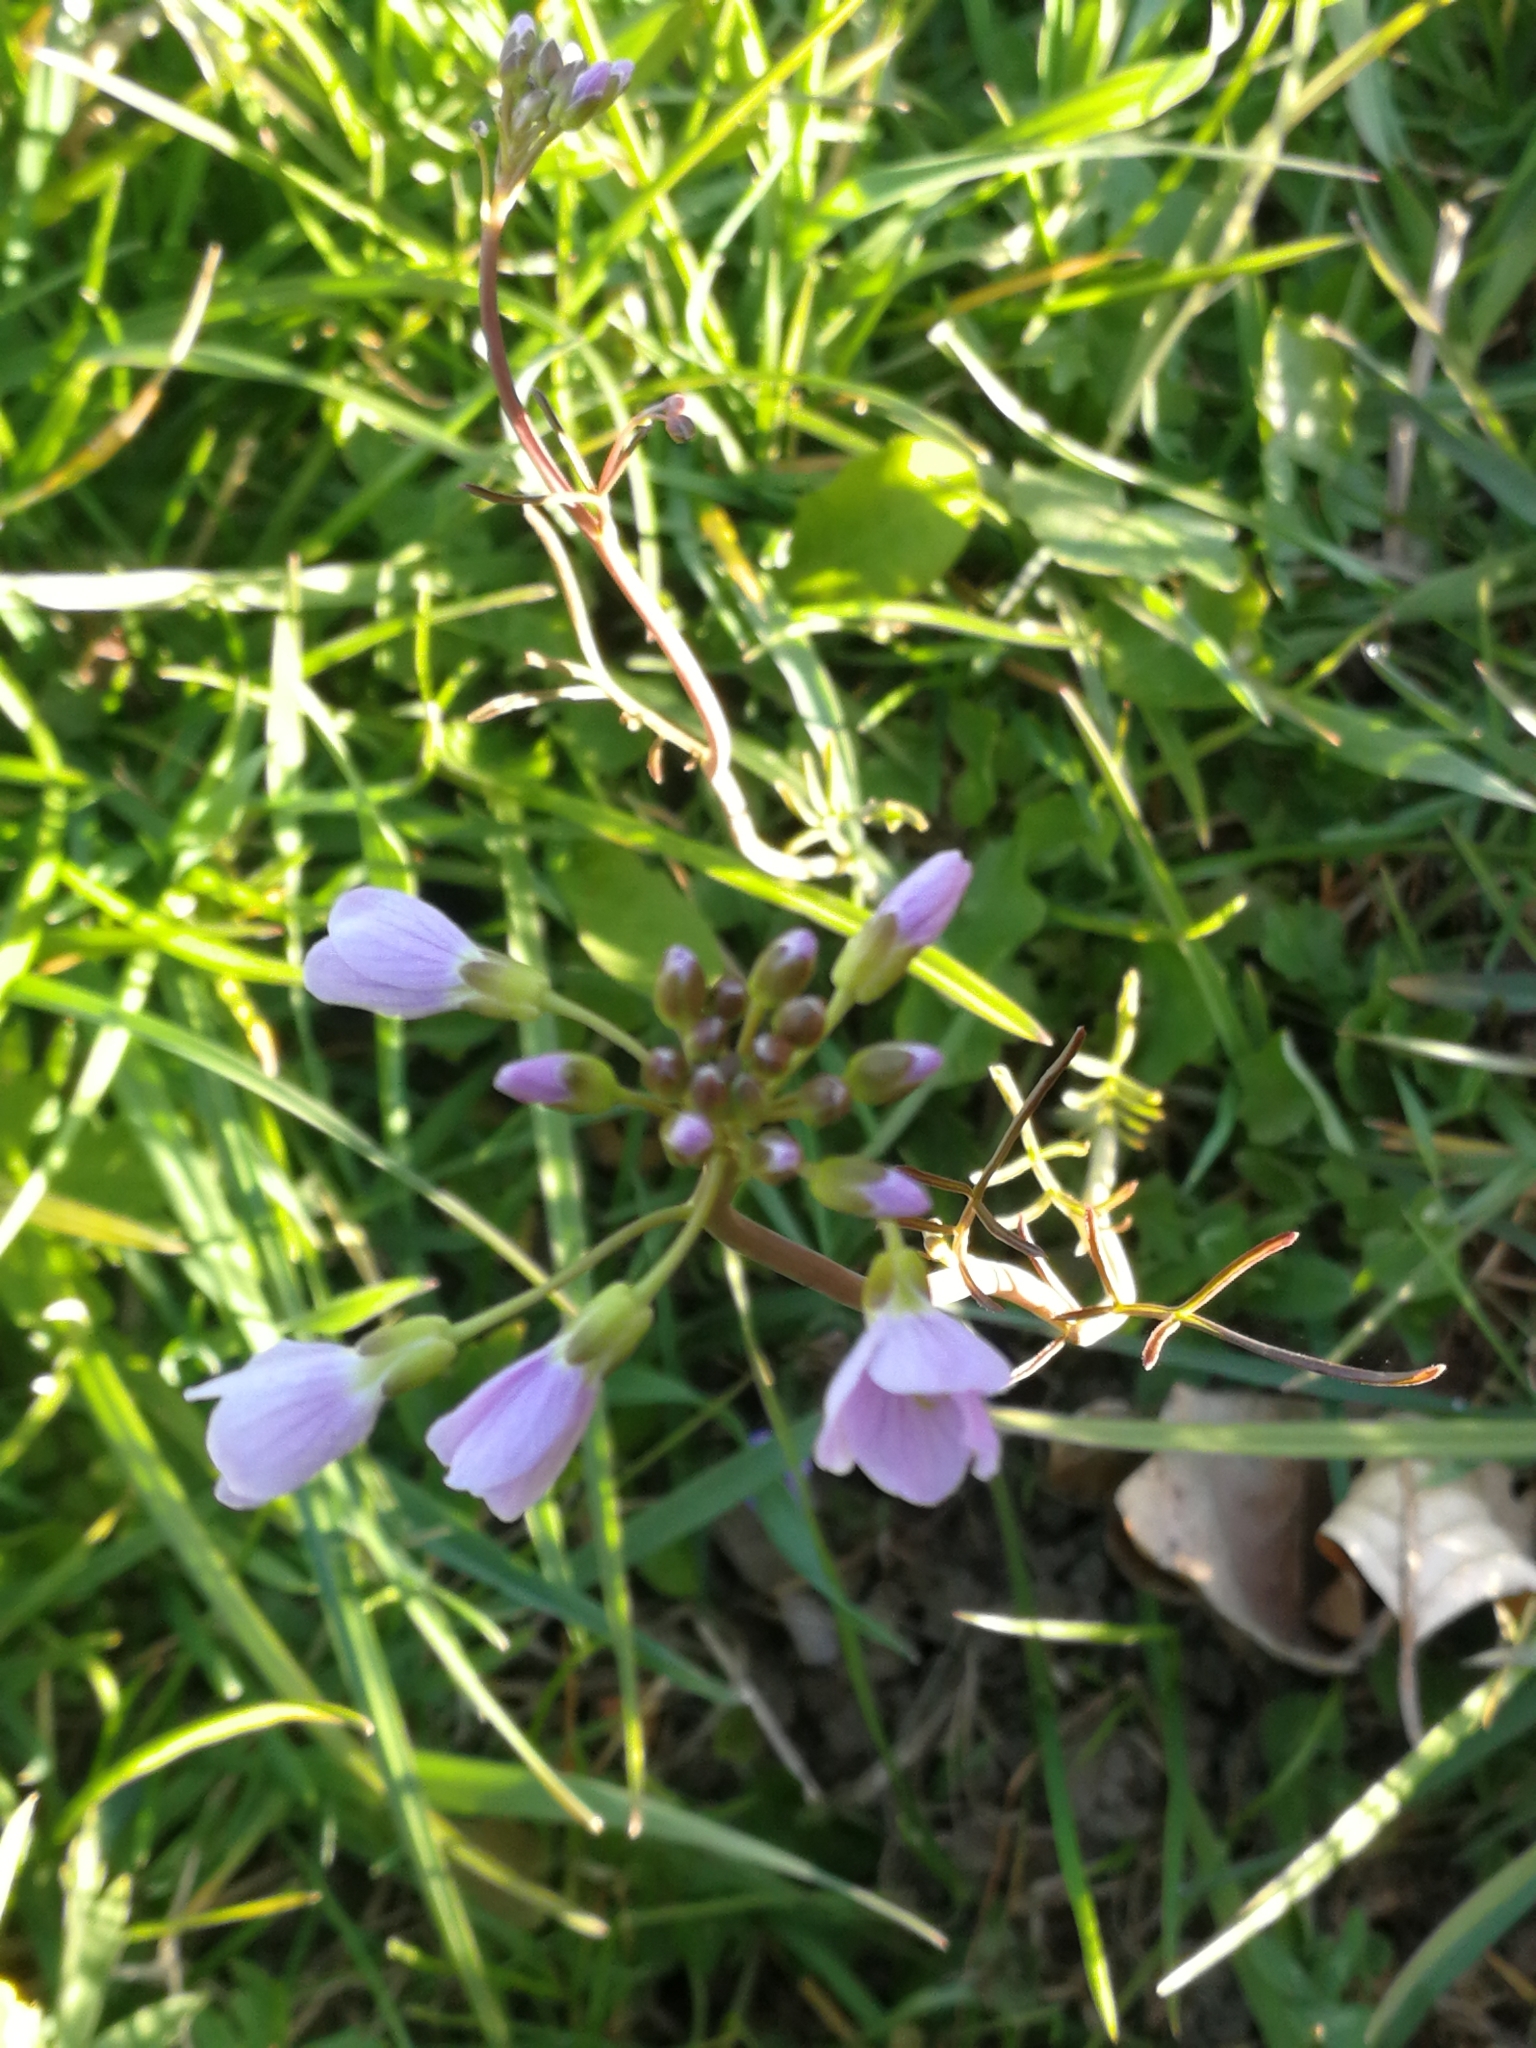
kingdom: Plantae
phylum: Tracheophyta
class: Magnoliopsida
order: Brassicales
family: Brassicaceae
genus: Cardamine
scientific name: Cardamine pratensis
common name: Cuckoo flower
